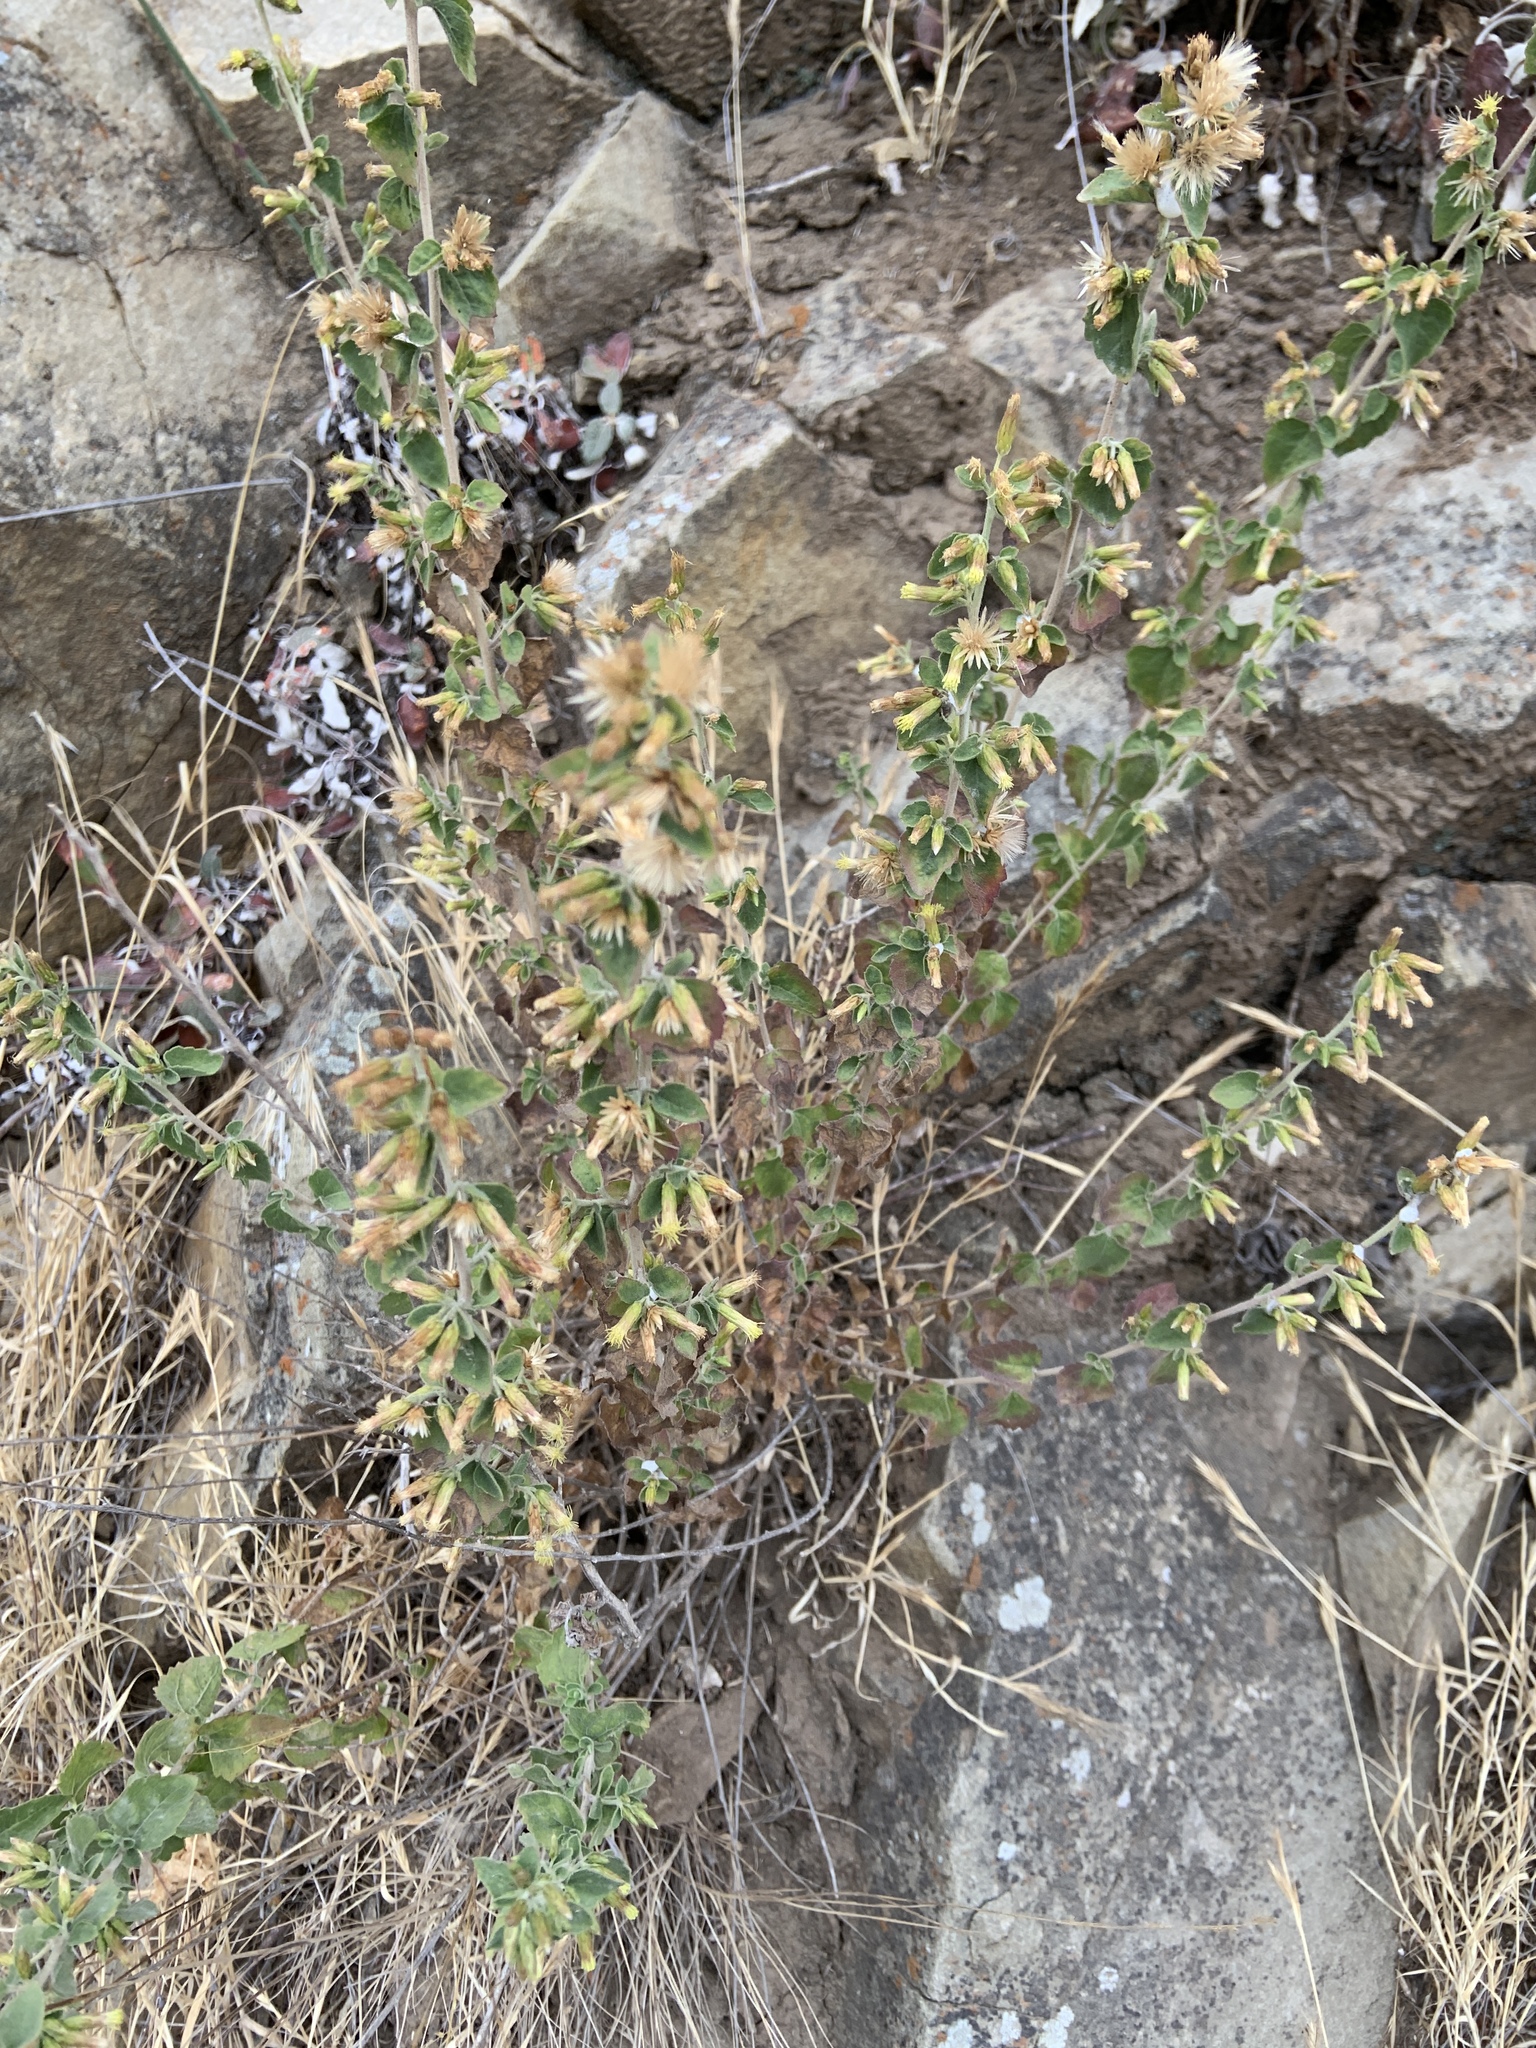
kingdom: Plantae
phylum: Tracheophyta
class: Magnoliopsida
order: Asterales
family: Asteraceae
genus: Brickellia
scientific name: Brickellia californica
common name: California brickellbush
